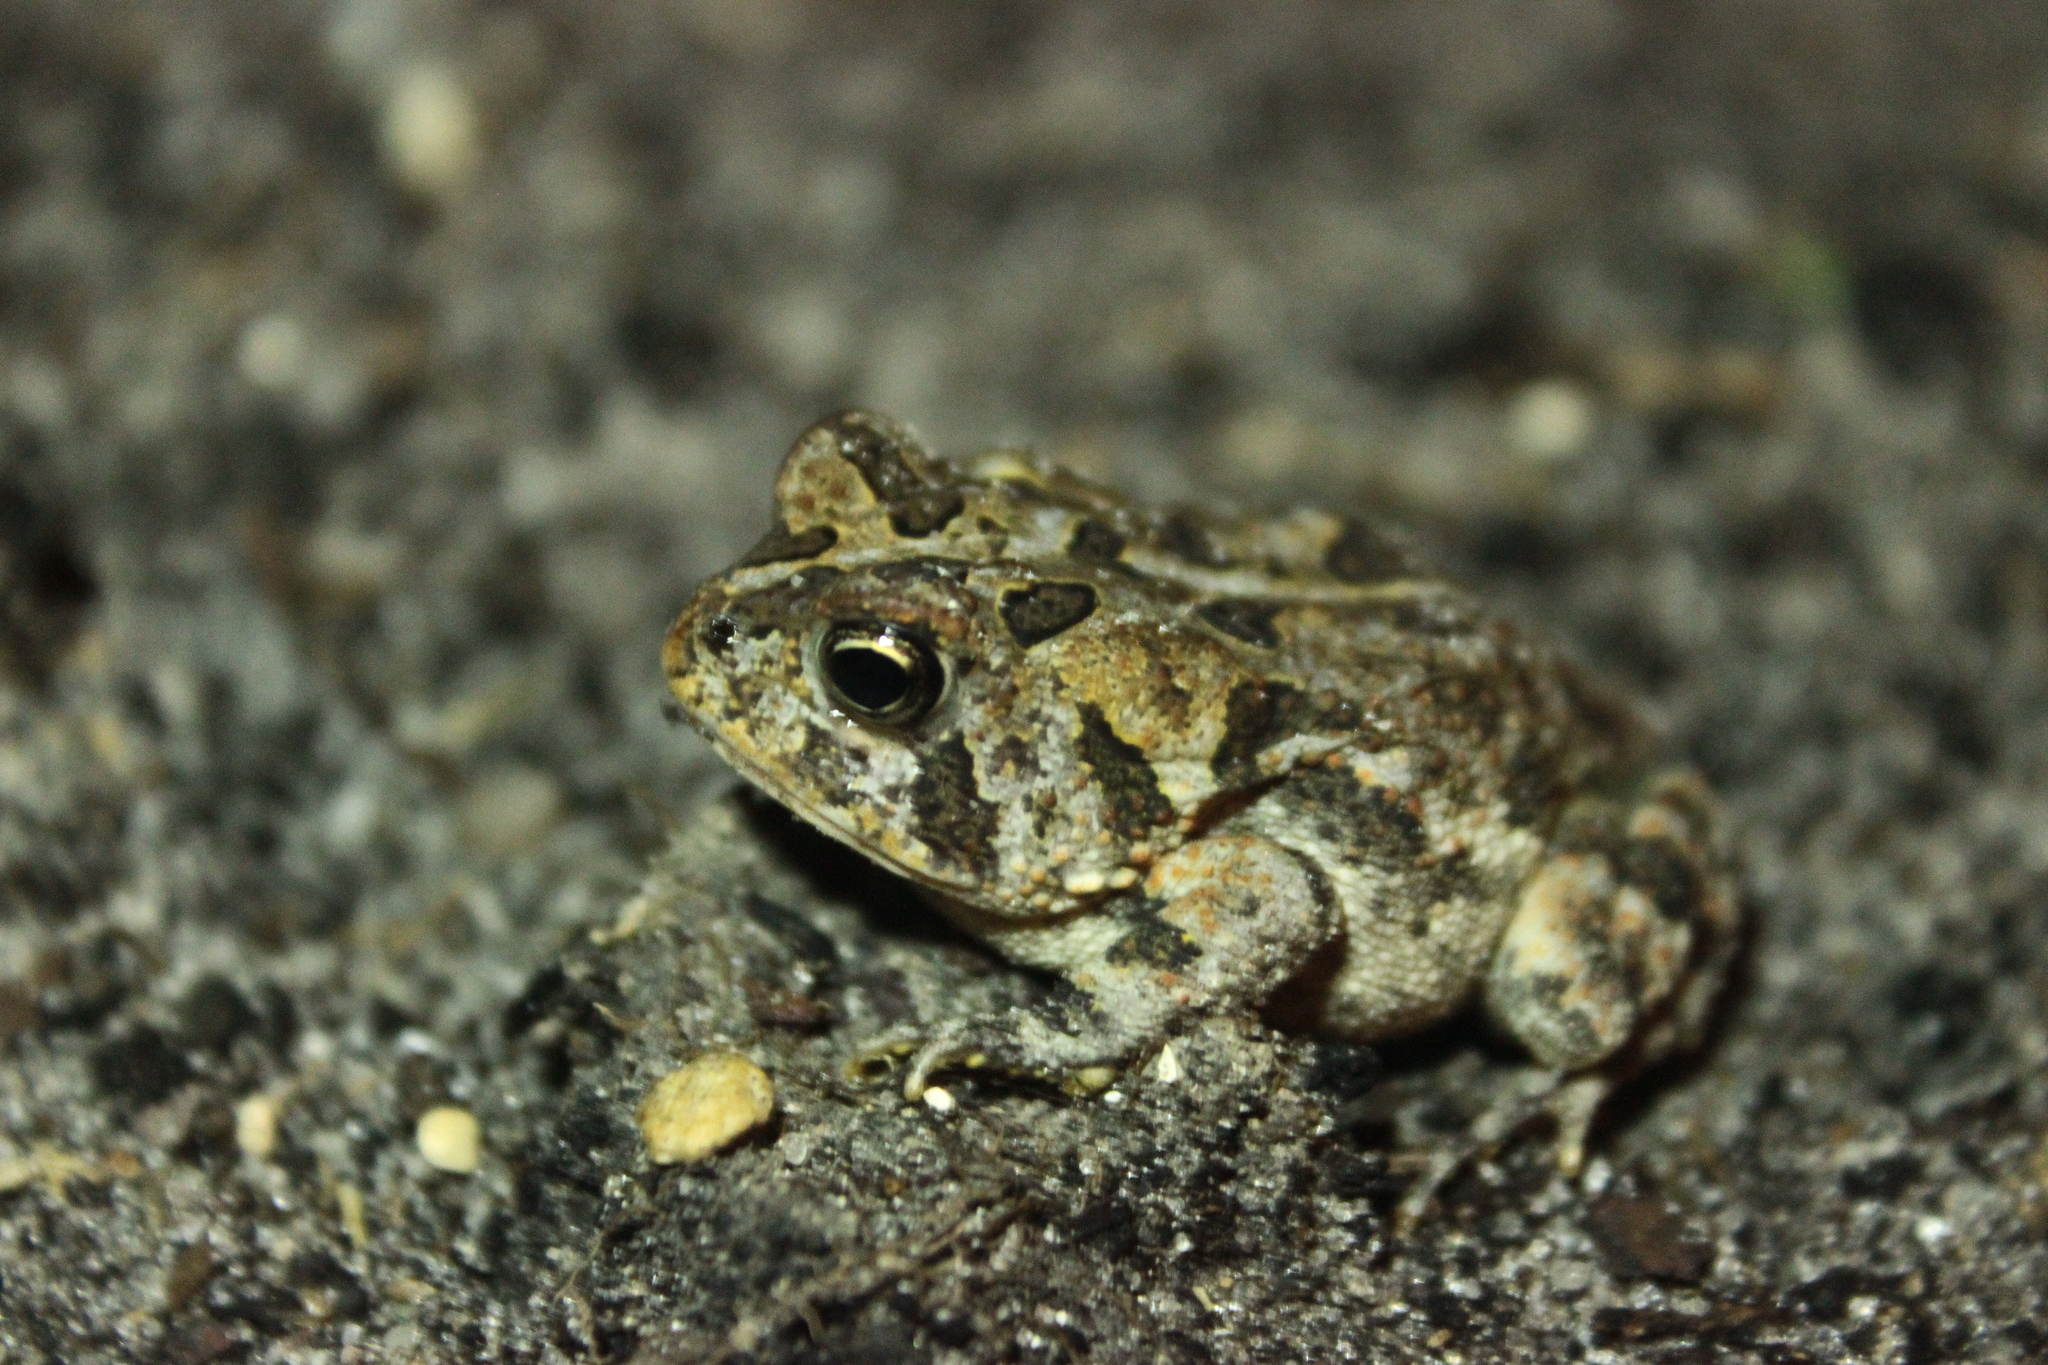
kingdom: Animalia
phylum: Chordata
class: Amphibia
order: Anura
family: Bufonidae
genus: Anaxyrus
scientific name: Anaxyrus terrestris
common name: Southern toad
